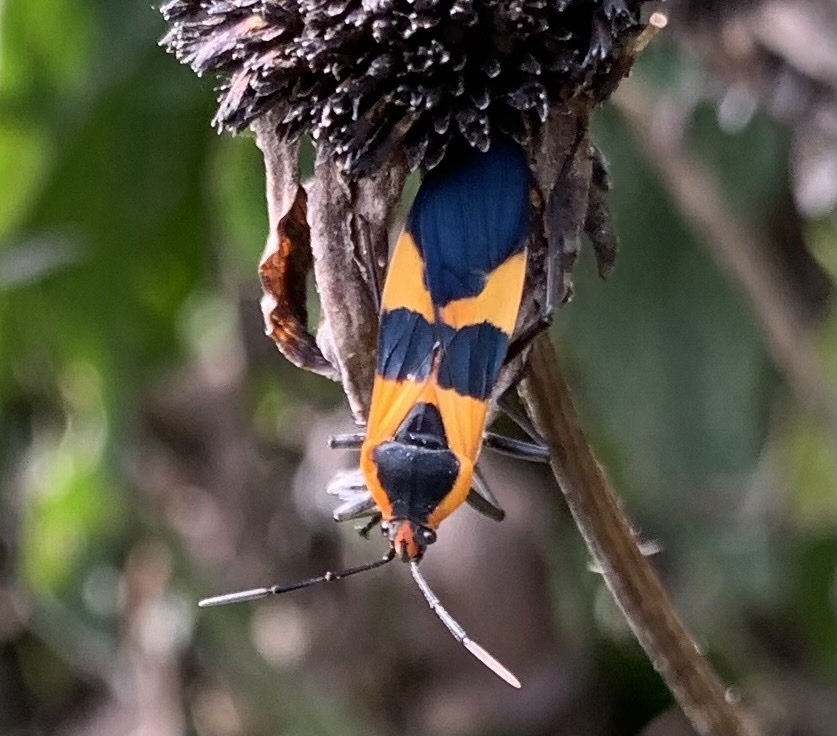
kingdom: Animalia
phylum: Arthropoda
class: Insecta
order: Hemiptera
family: Lygaeidae
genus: Oncopeltus
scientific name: Oncopeltus fasciatus
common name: Large milkweed bug
